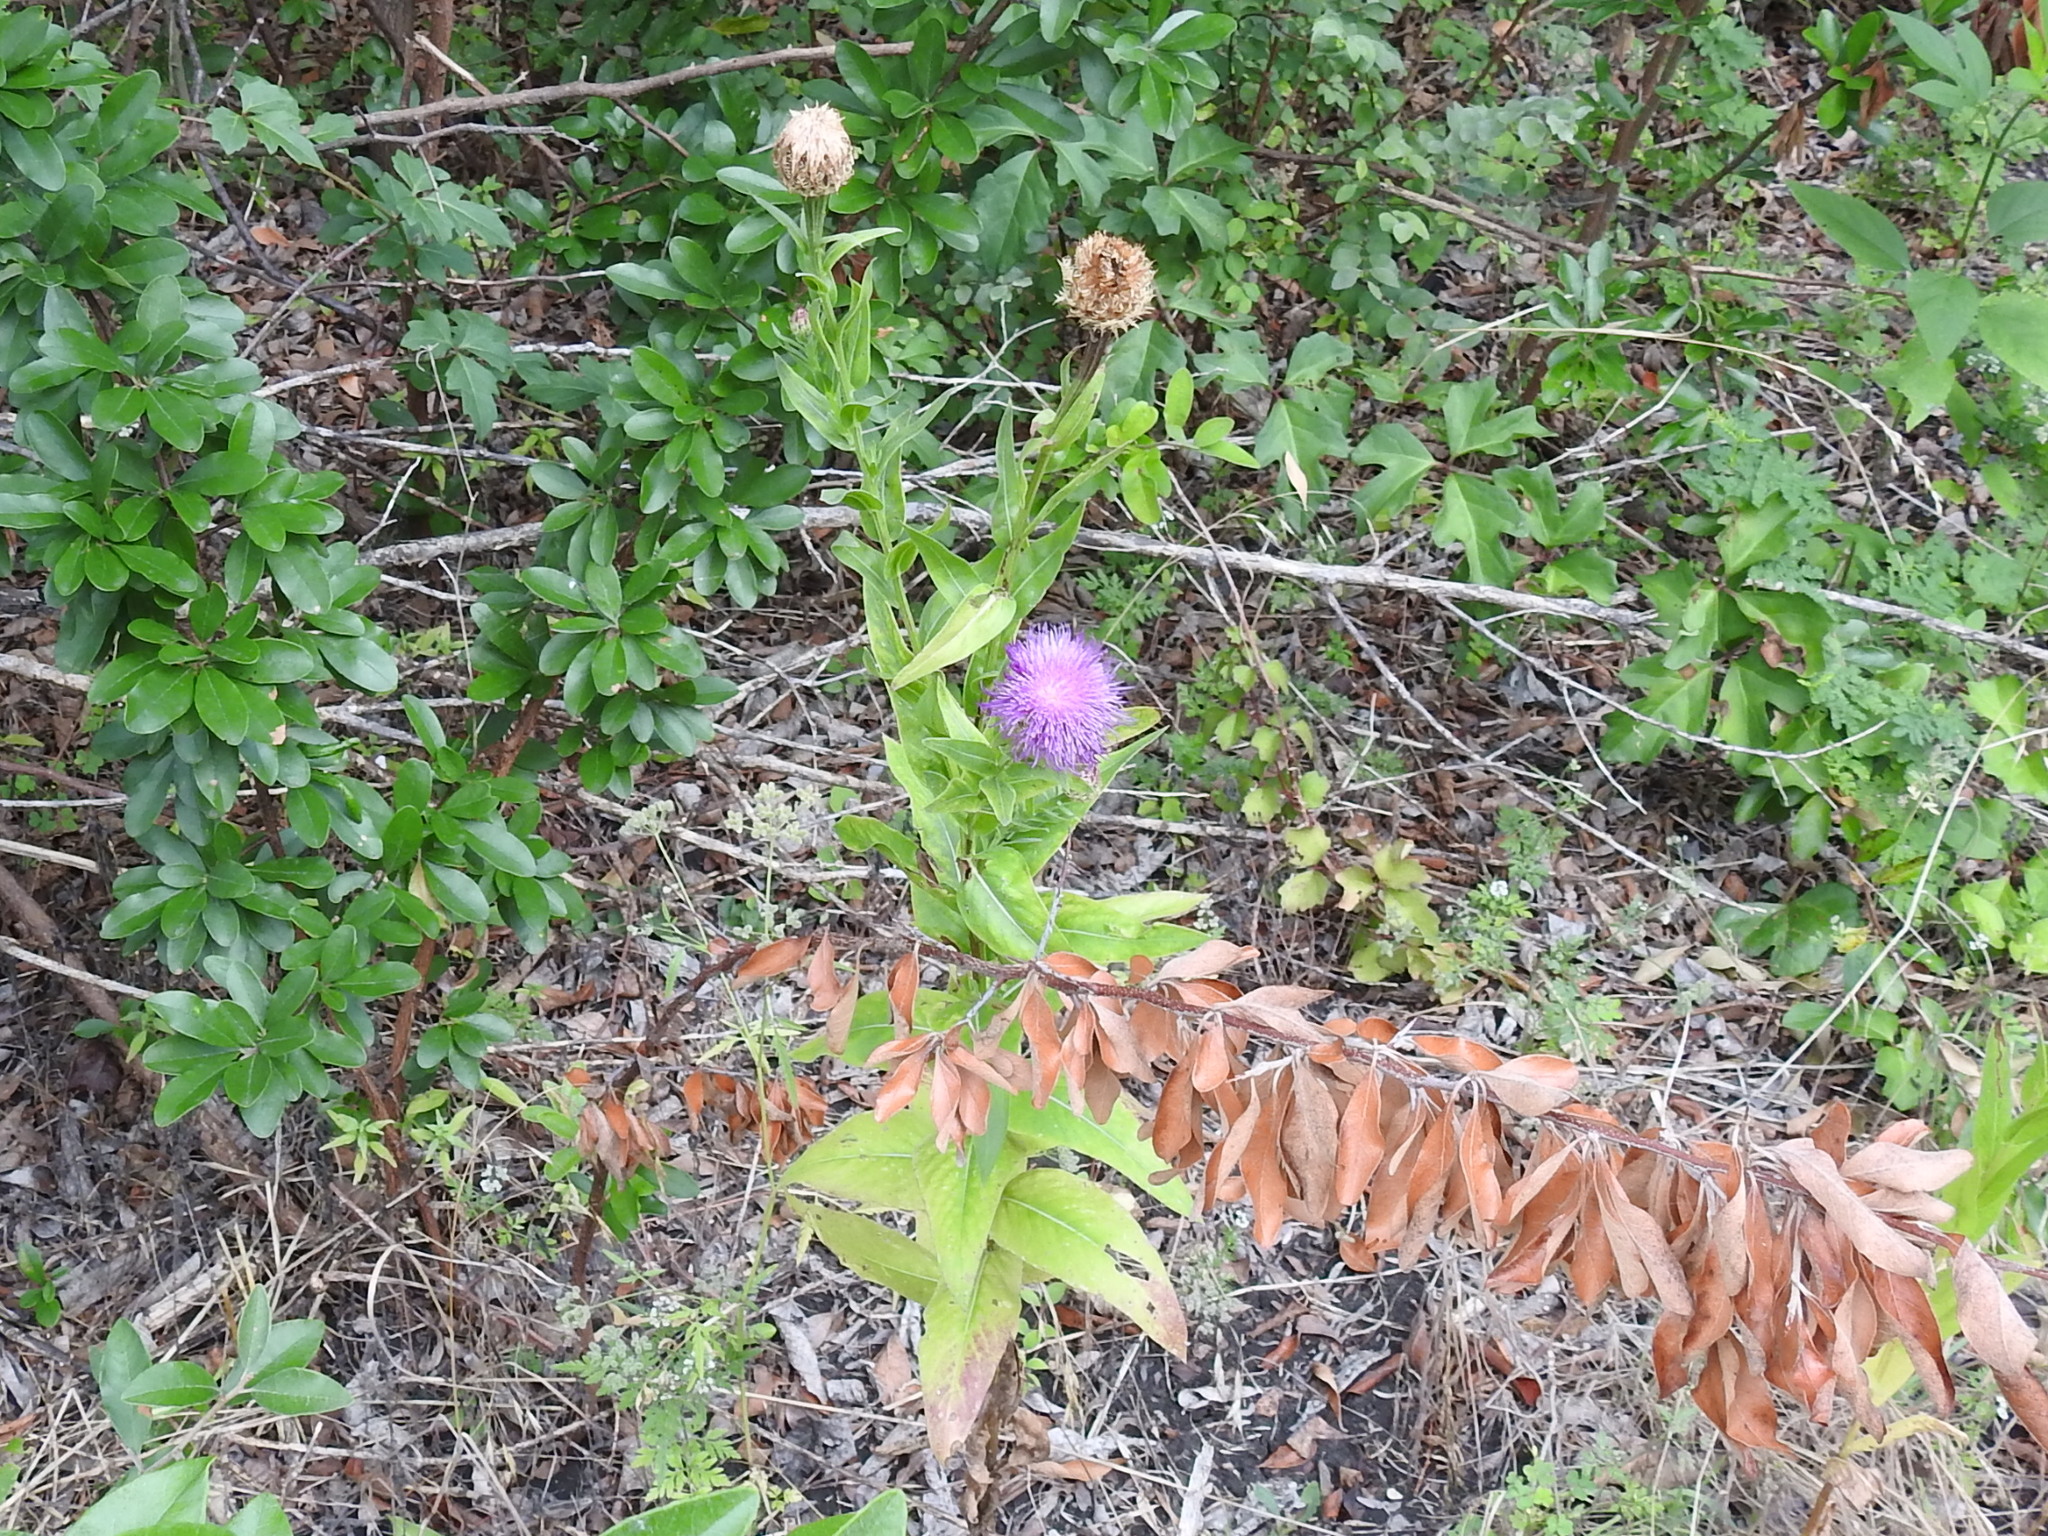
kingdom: Plantae
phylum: Tracheophyta
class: Magnoliopsida
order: Asterales
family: Asteraceae
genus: Plectocephalus
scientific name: Plectocephalus americanus
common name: American basket-flower
